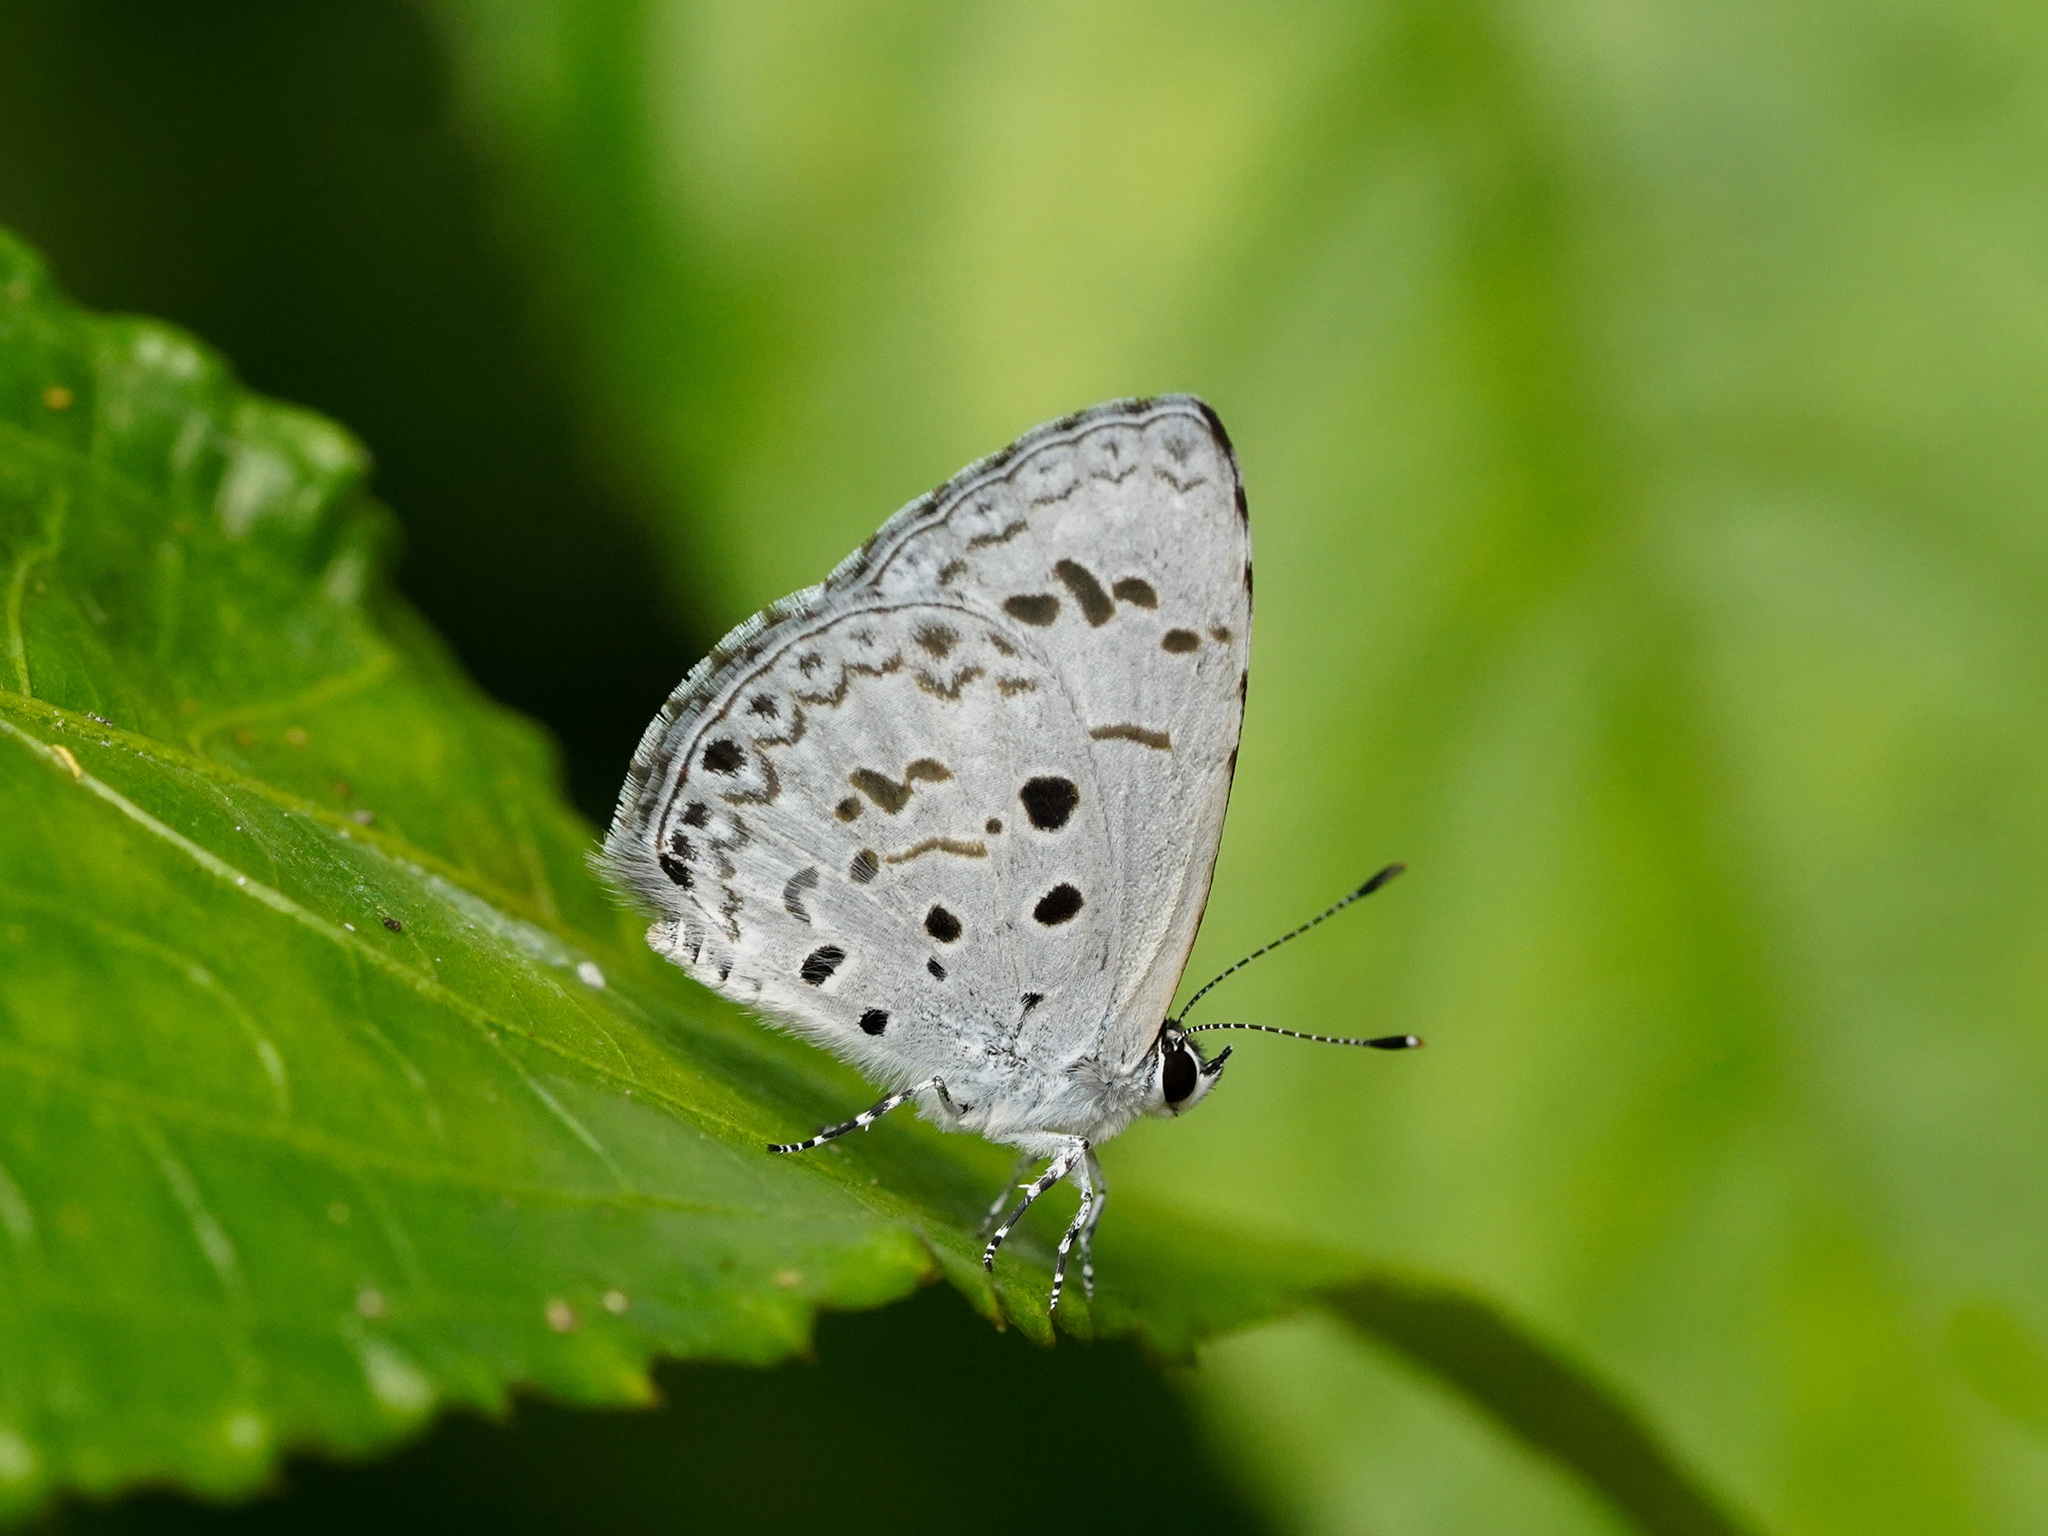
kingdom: Animalia
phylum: Arthropoda
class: Insecta
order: Lepidoptera
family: Lycaenidae
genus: Acytolepis
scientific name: Acytolepis puspa
